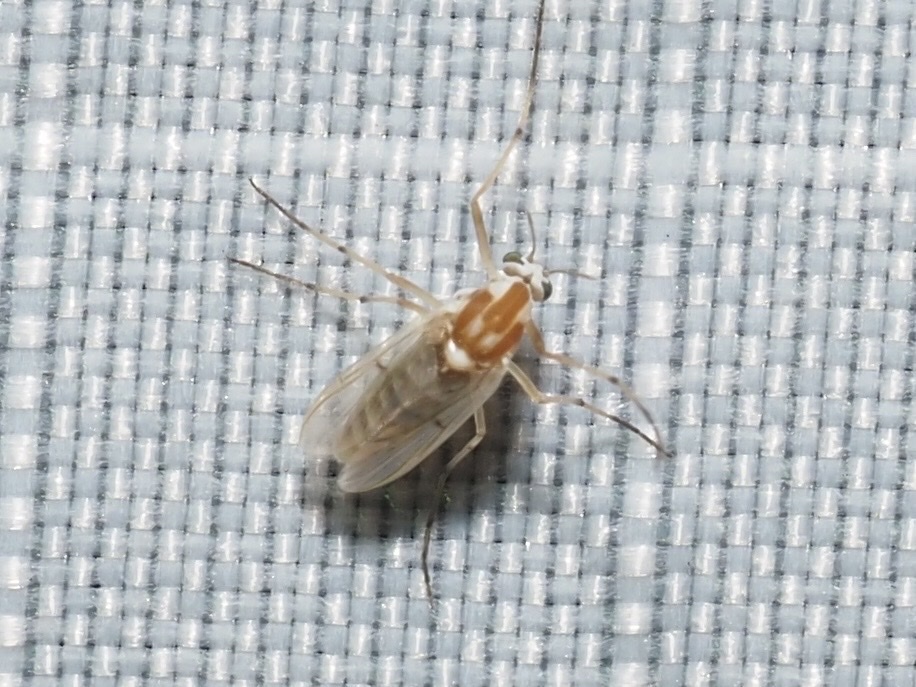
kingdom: Animalia
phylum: Arthropoda
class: Insecta
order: Diptera
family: Chironomidae
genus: Procladius
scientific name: Procladius bellus
